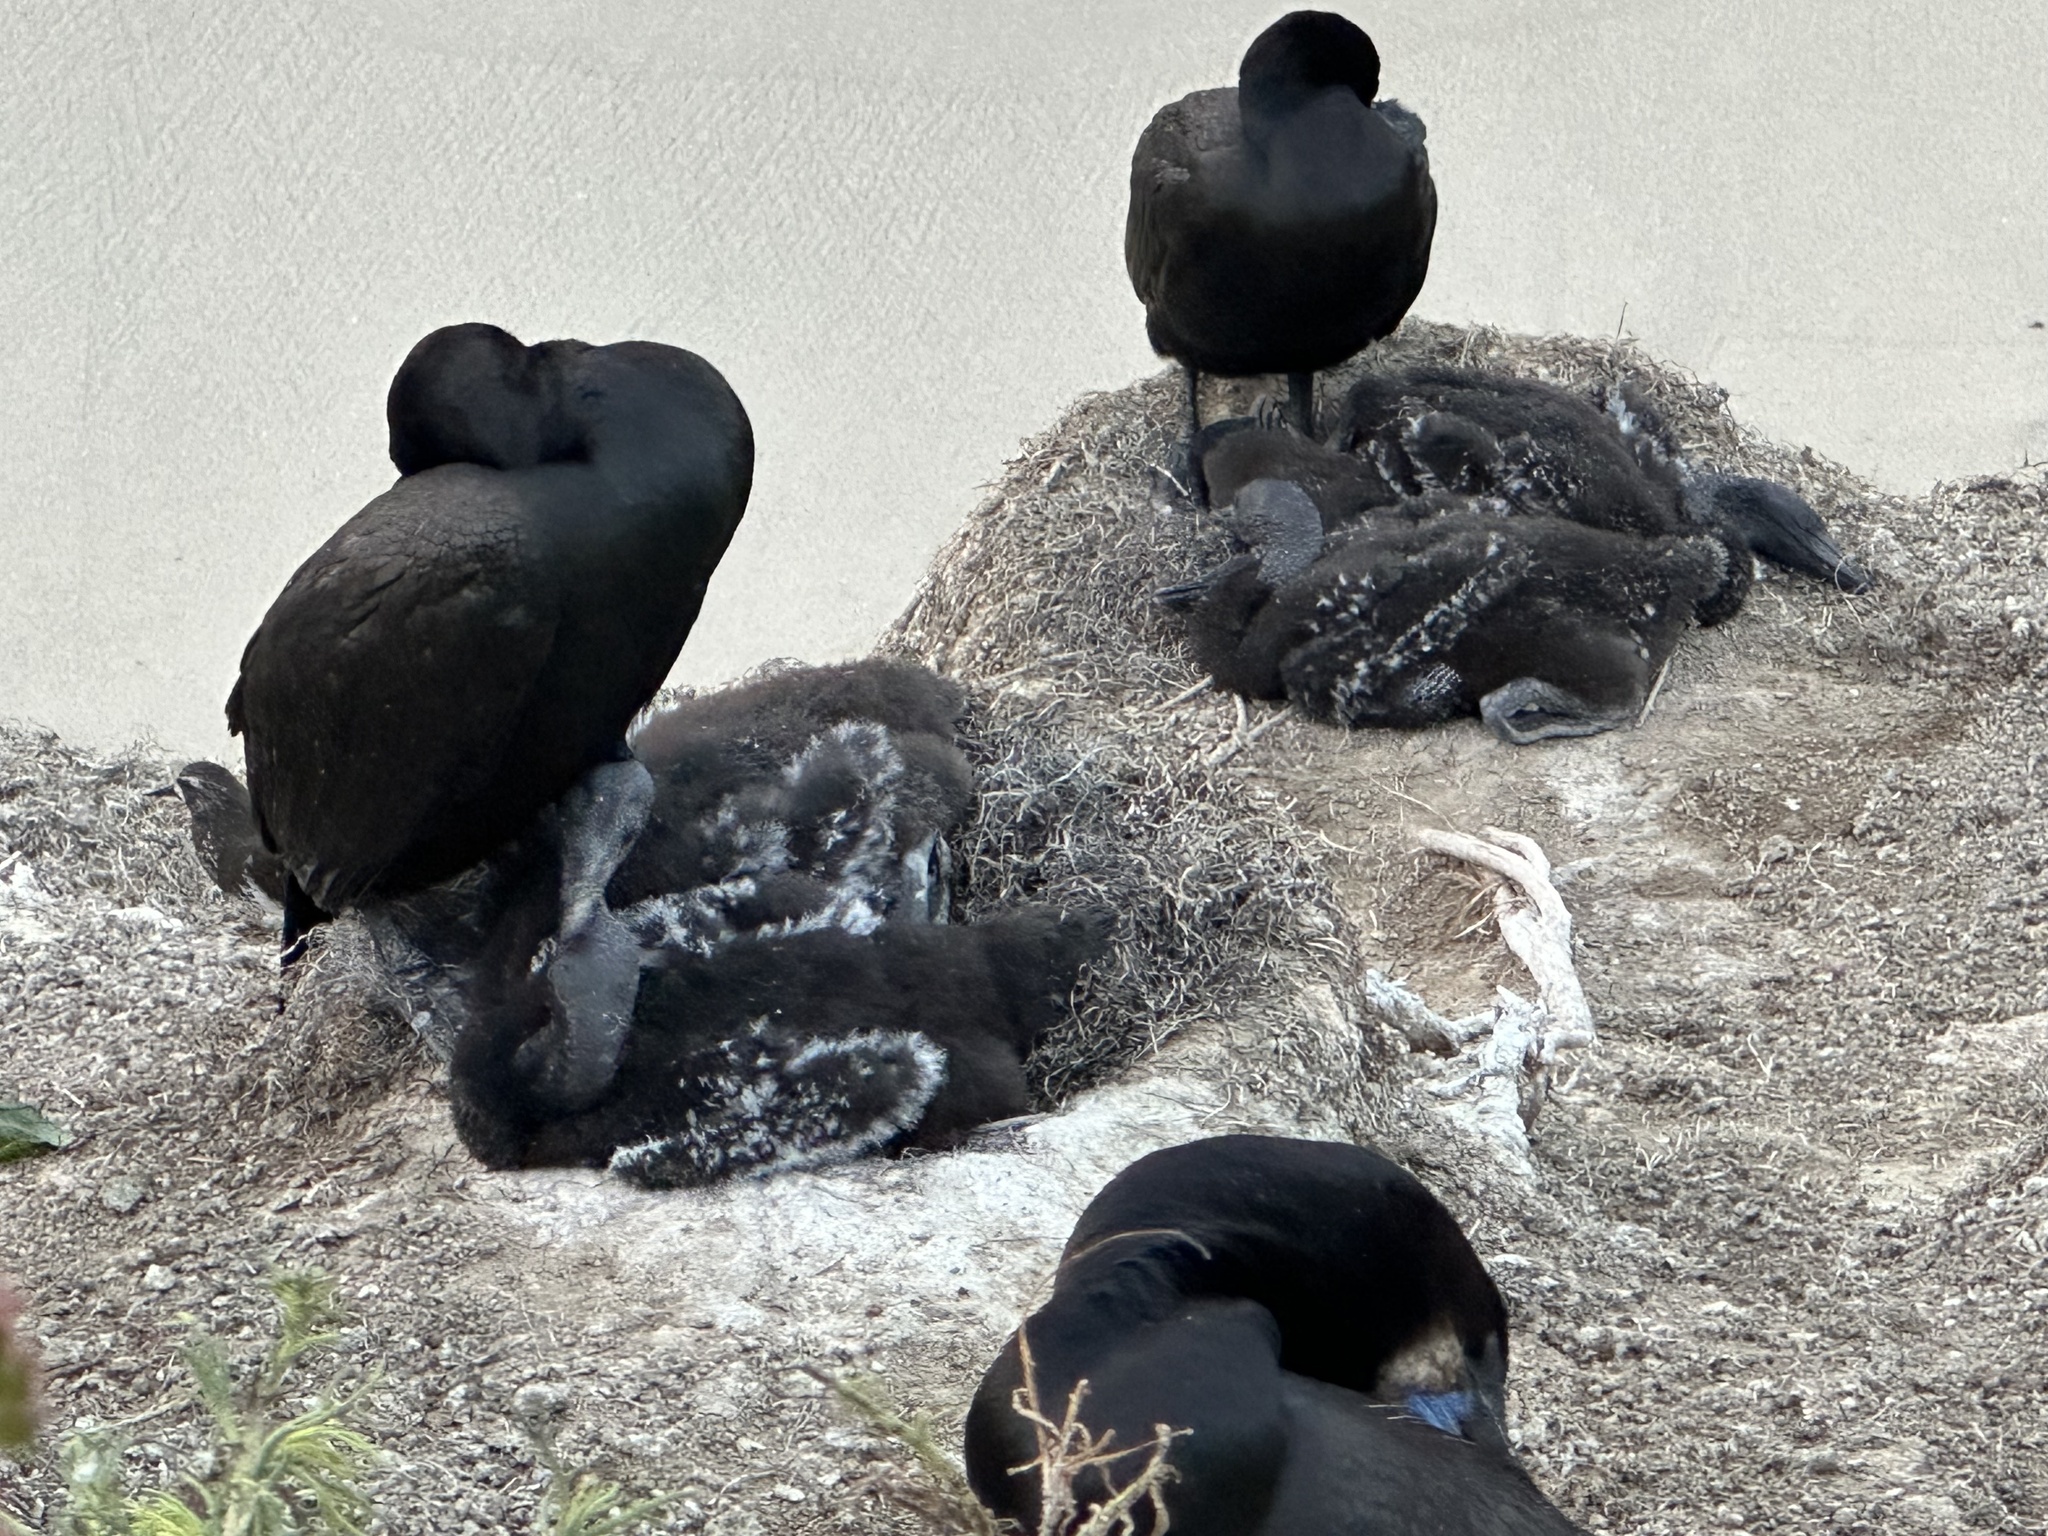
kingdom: Animalia
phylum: Chordata
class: Aves
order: Suliformes
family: Phalacrocoracidae
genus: Urile
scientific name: Urile penicillatus
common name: Brandt's cormorant
